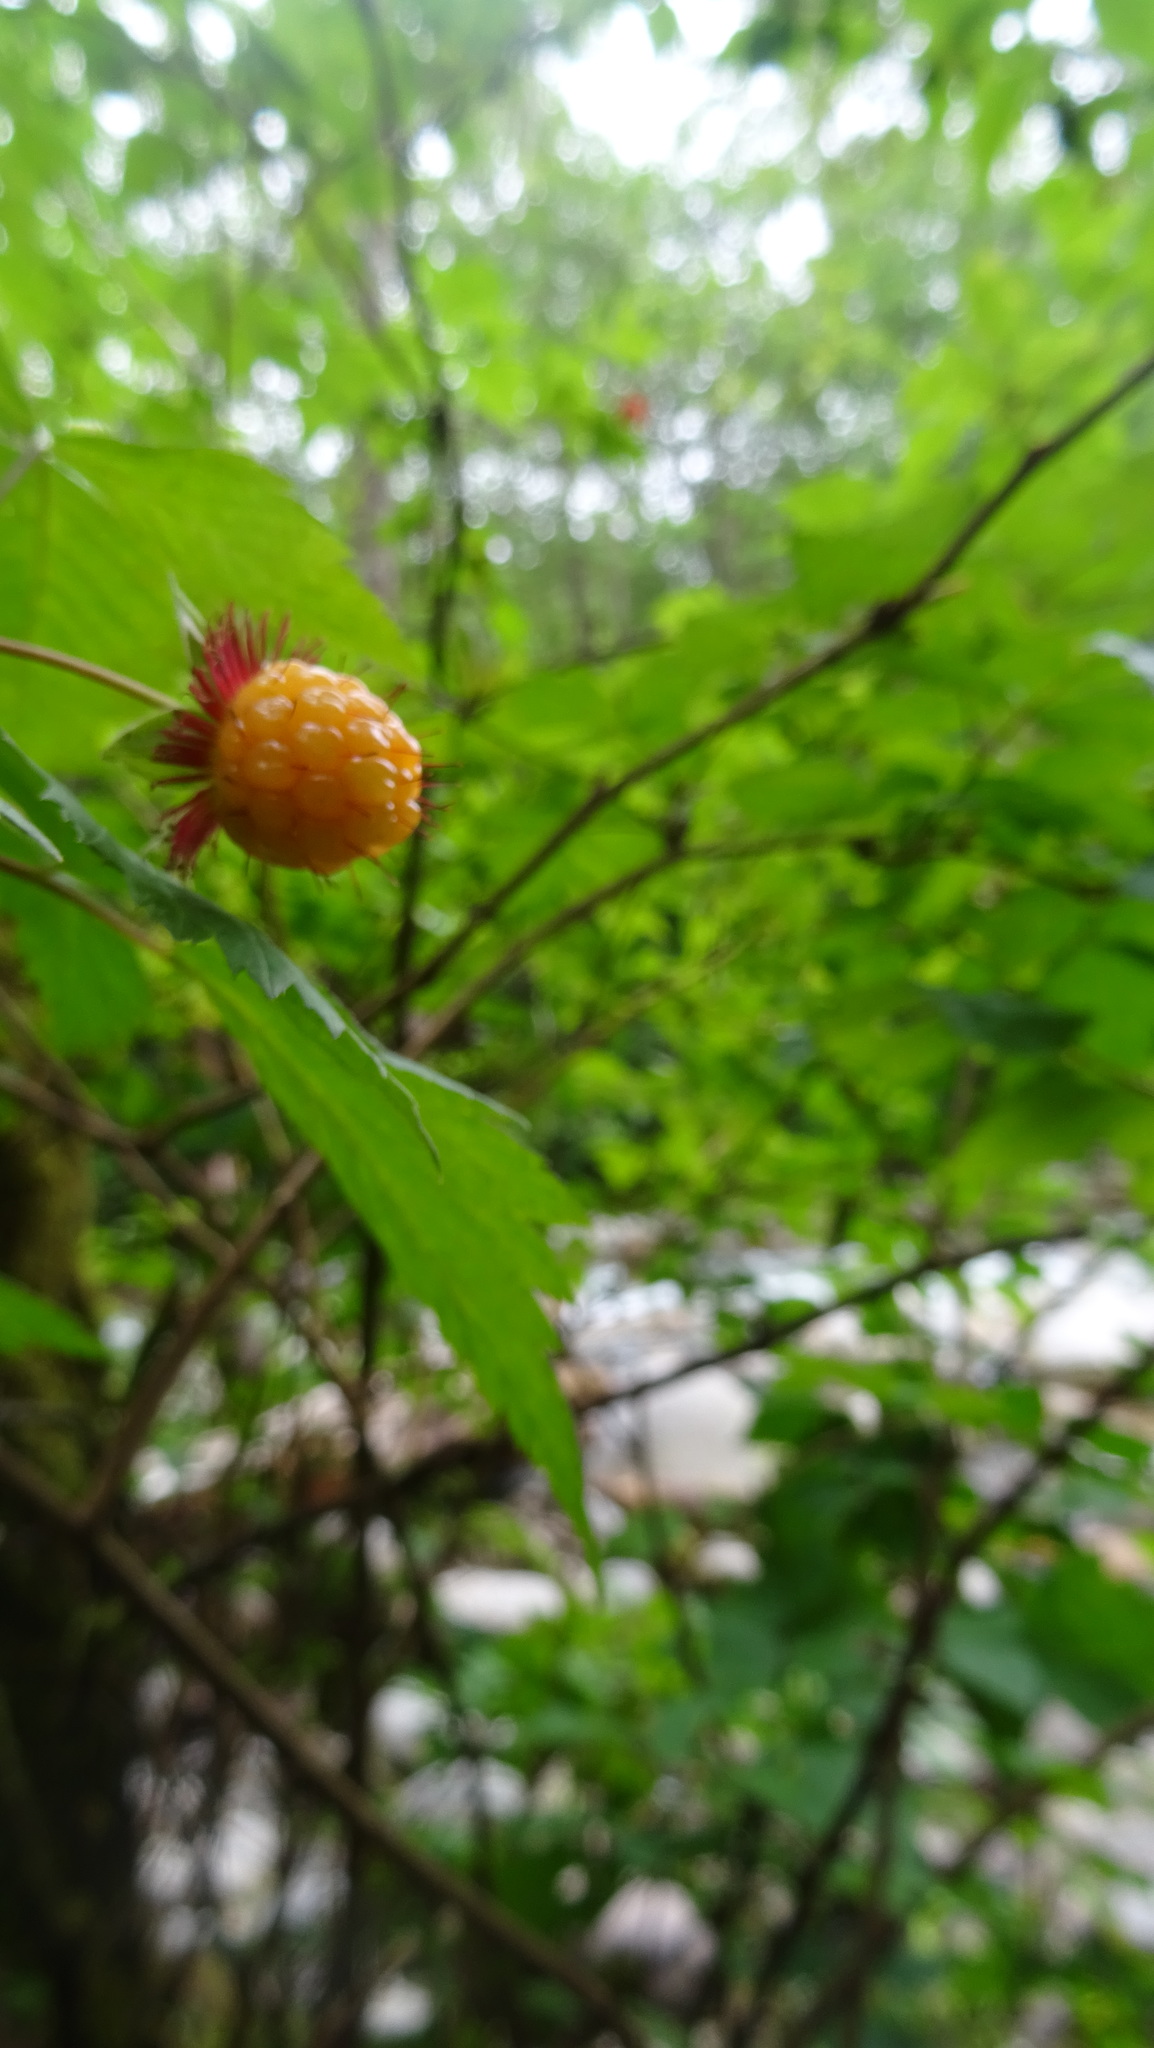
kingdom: Plantae
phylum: Tracheophyta
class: Magnoliopsida
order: Rosales
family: Rosaceae
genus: Rubus
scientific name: Rubus spectabilis
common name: Salmonberry
